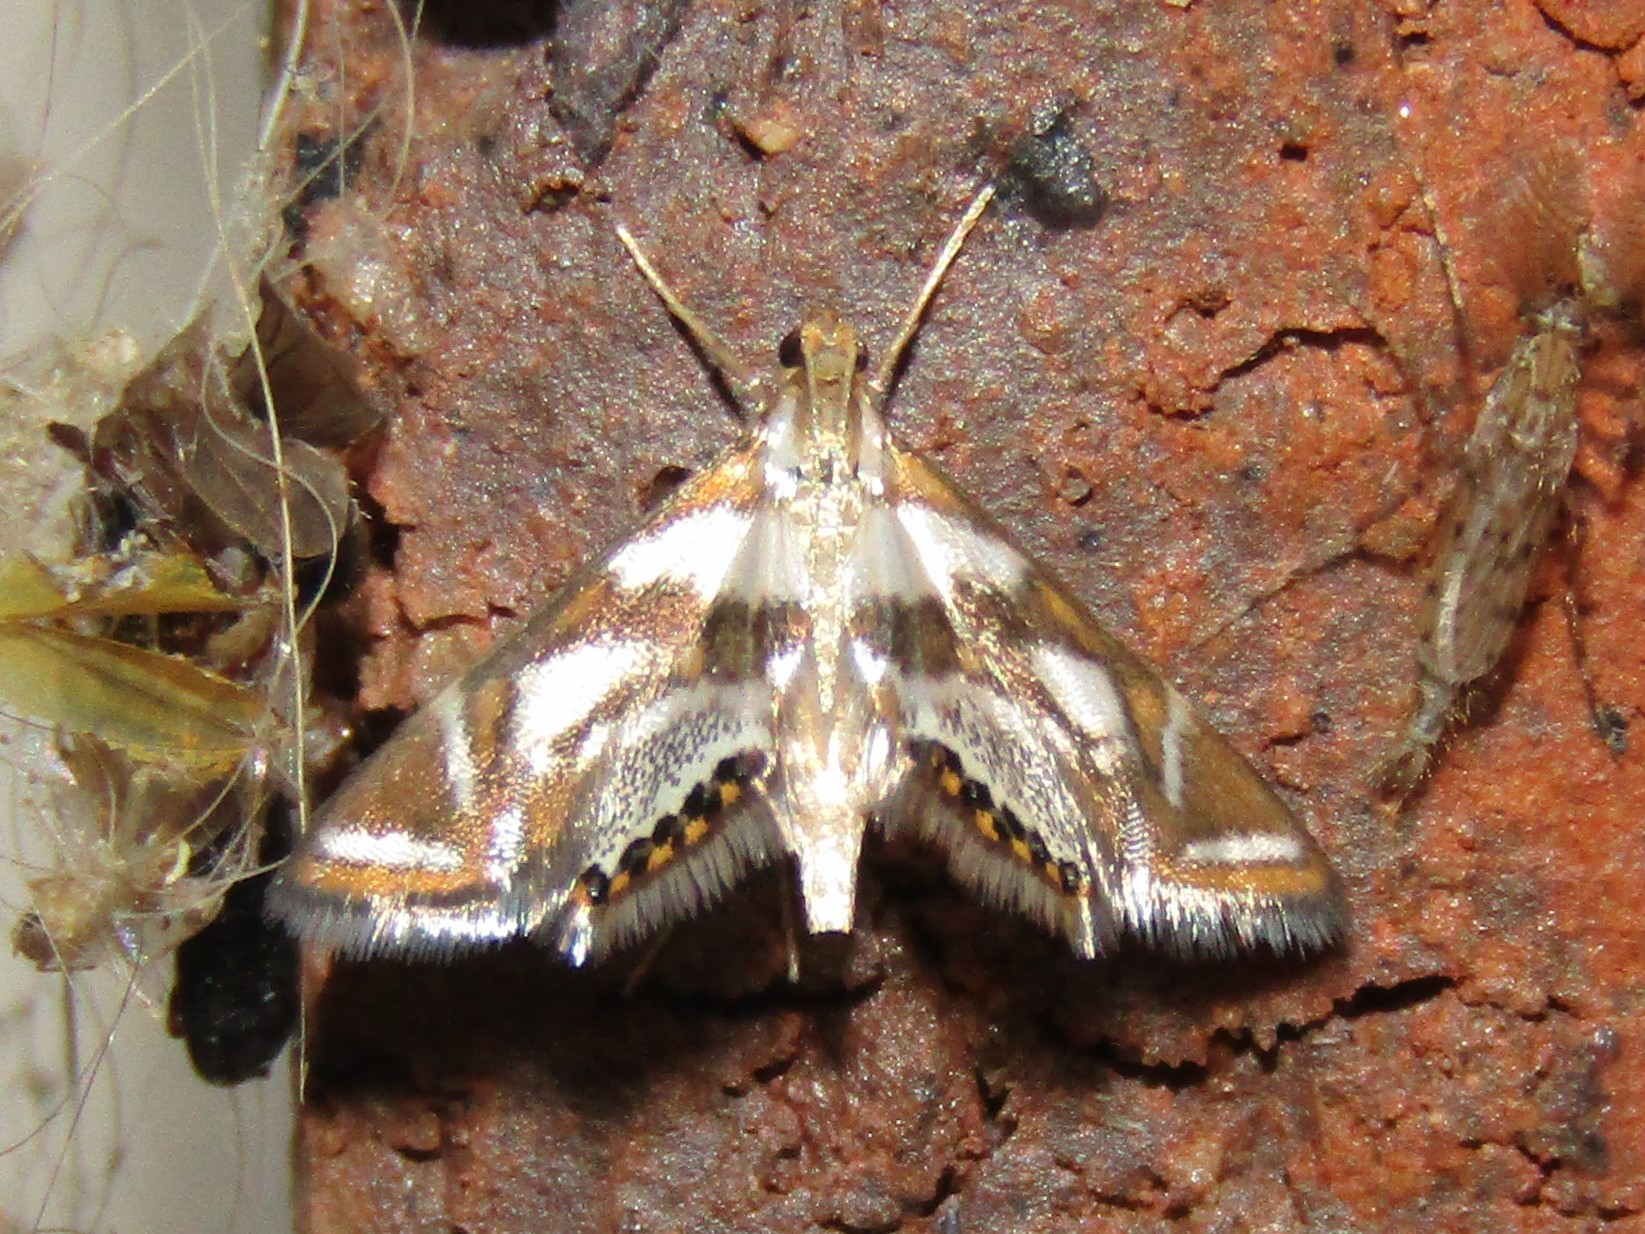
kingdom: Animalia
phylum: Arthropoda
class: Insecta
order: Lepidoptera
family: Crambidae
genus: Chrysendeton
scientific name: Chrysendeton medicinalis
